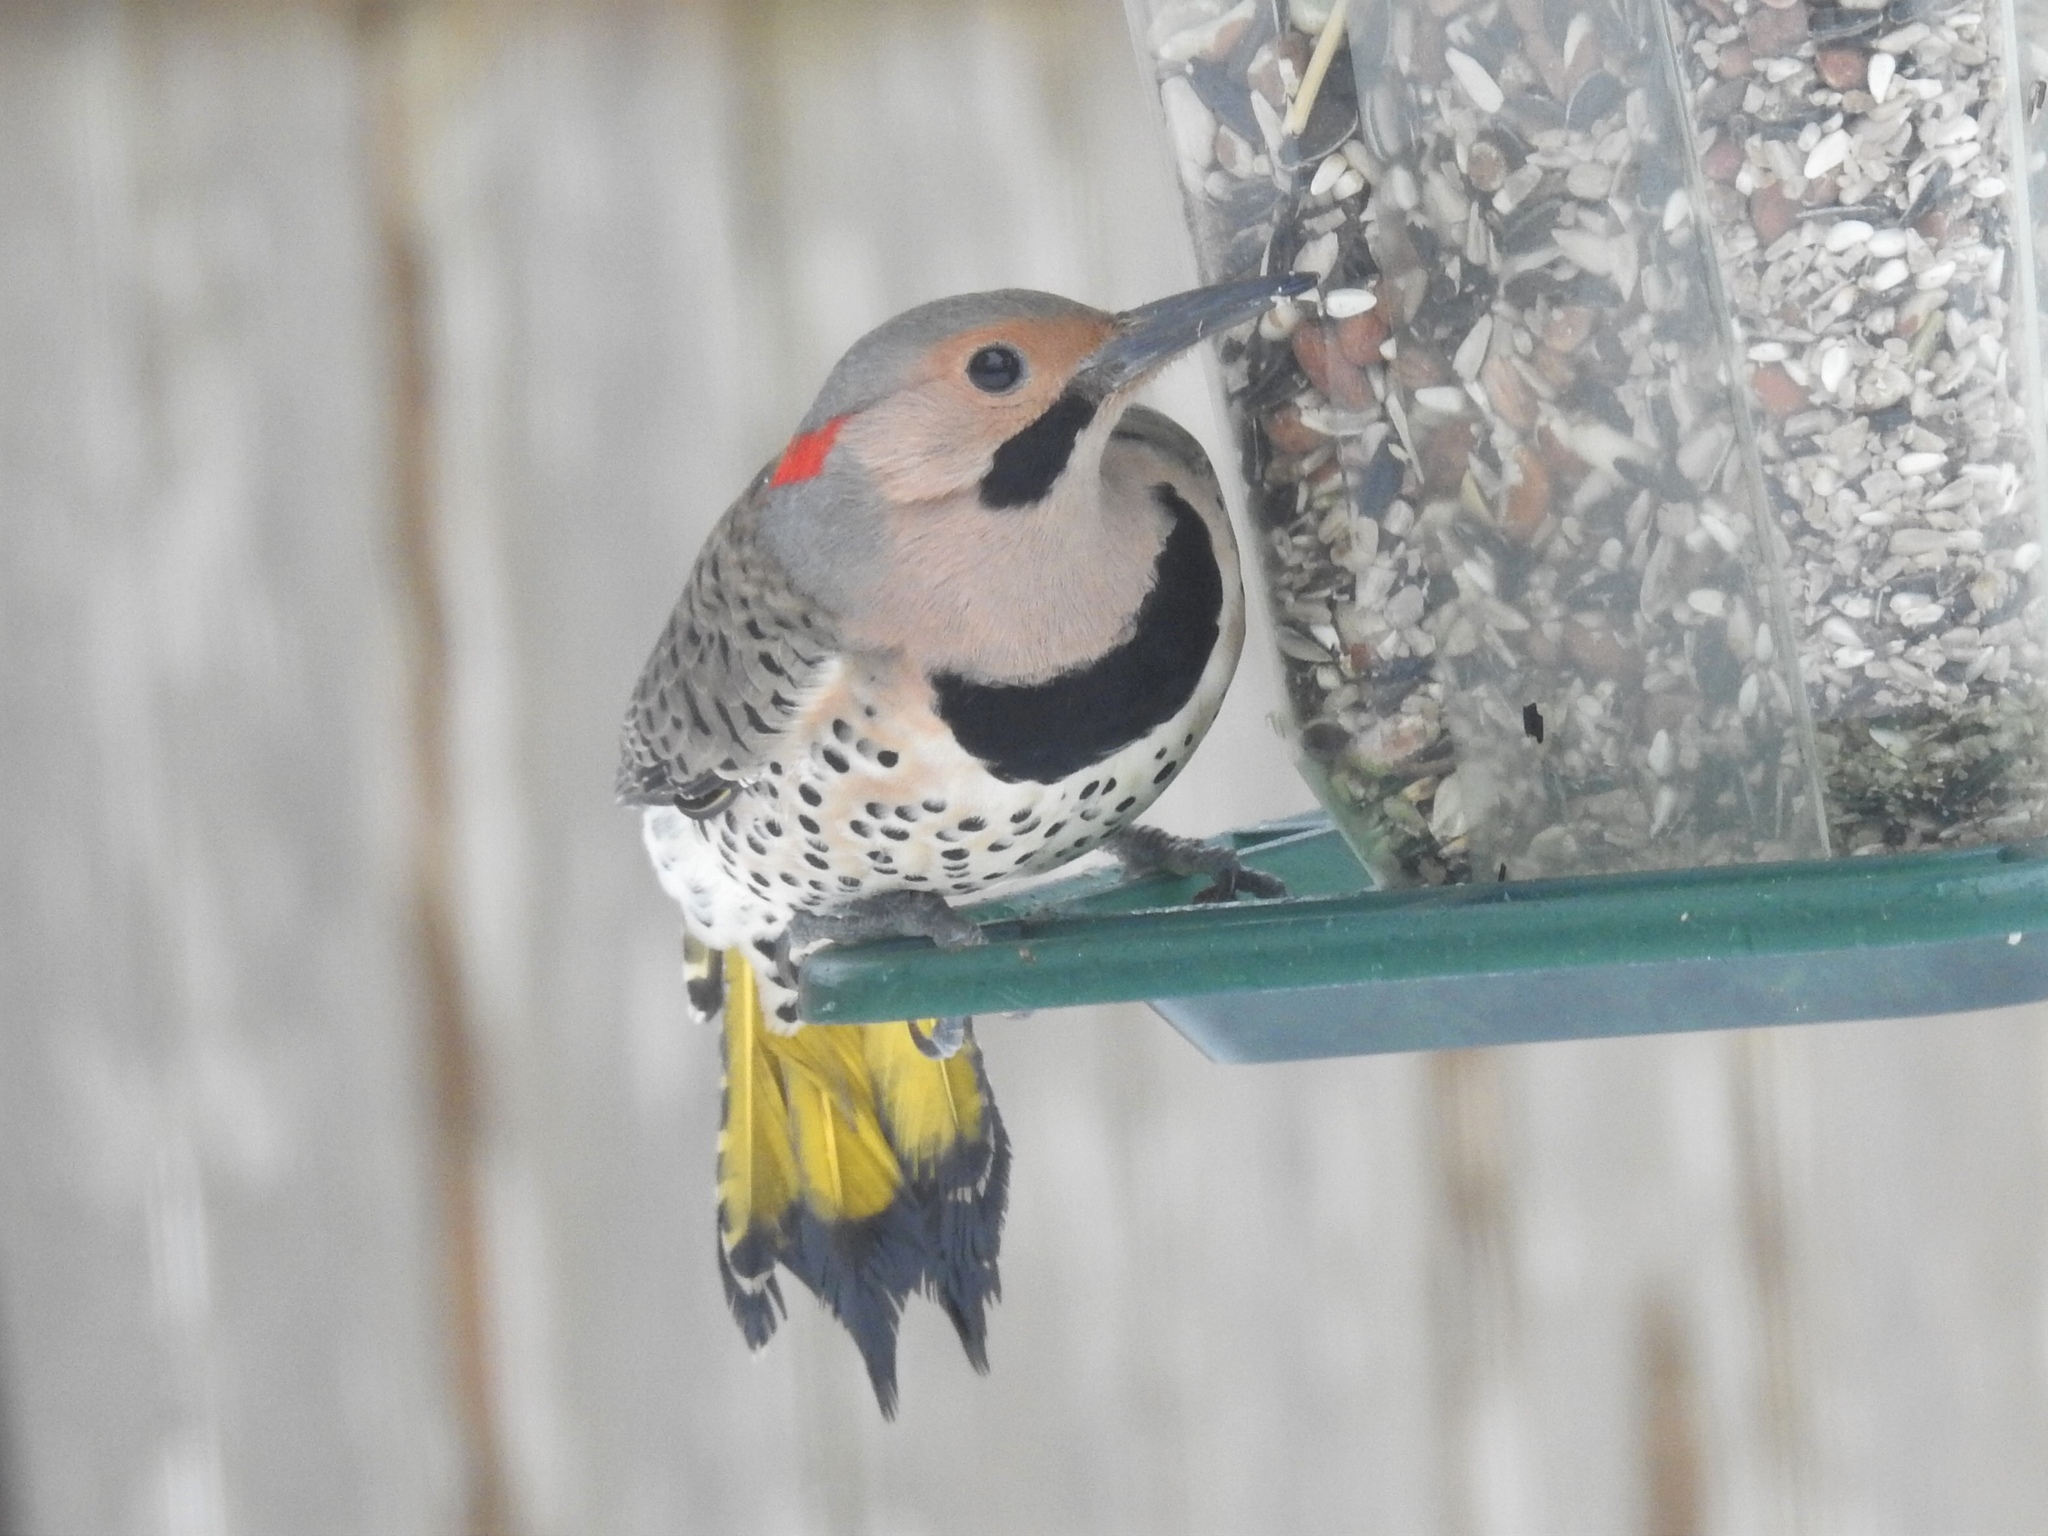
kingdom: Animalia
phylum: Chordata
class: Aves
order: Piciformes
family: Picidae
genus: Colaptes
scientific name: Colaptes auratus
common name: Northern flicker
